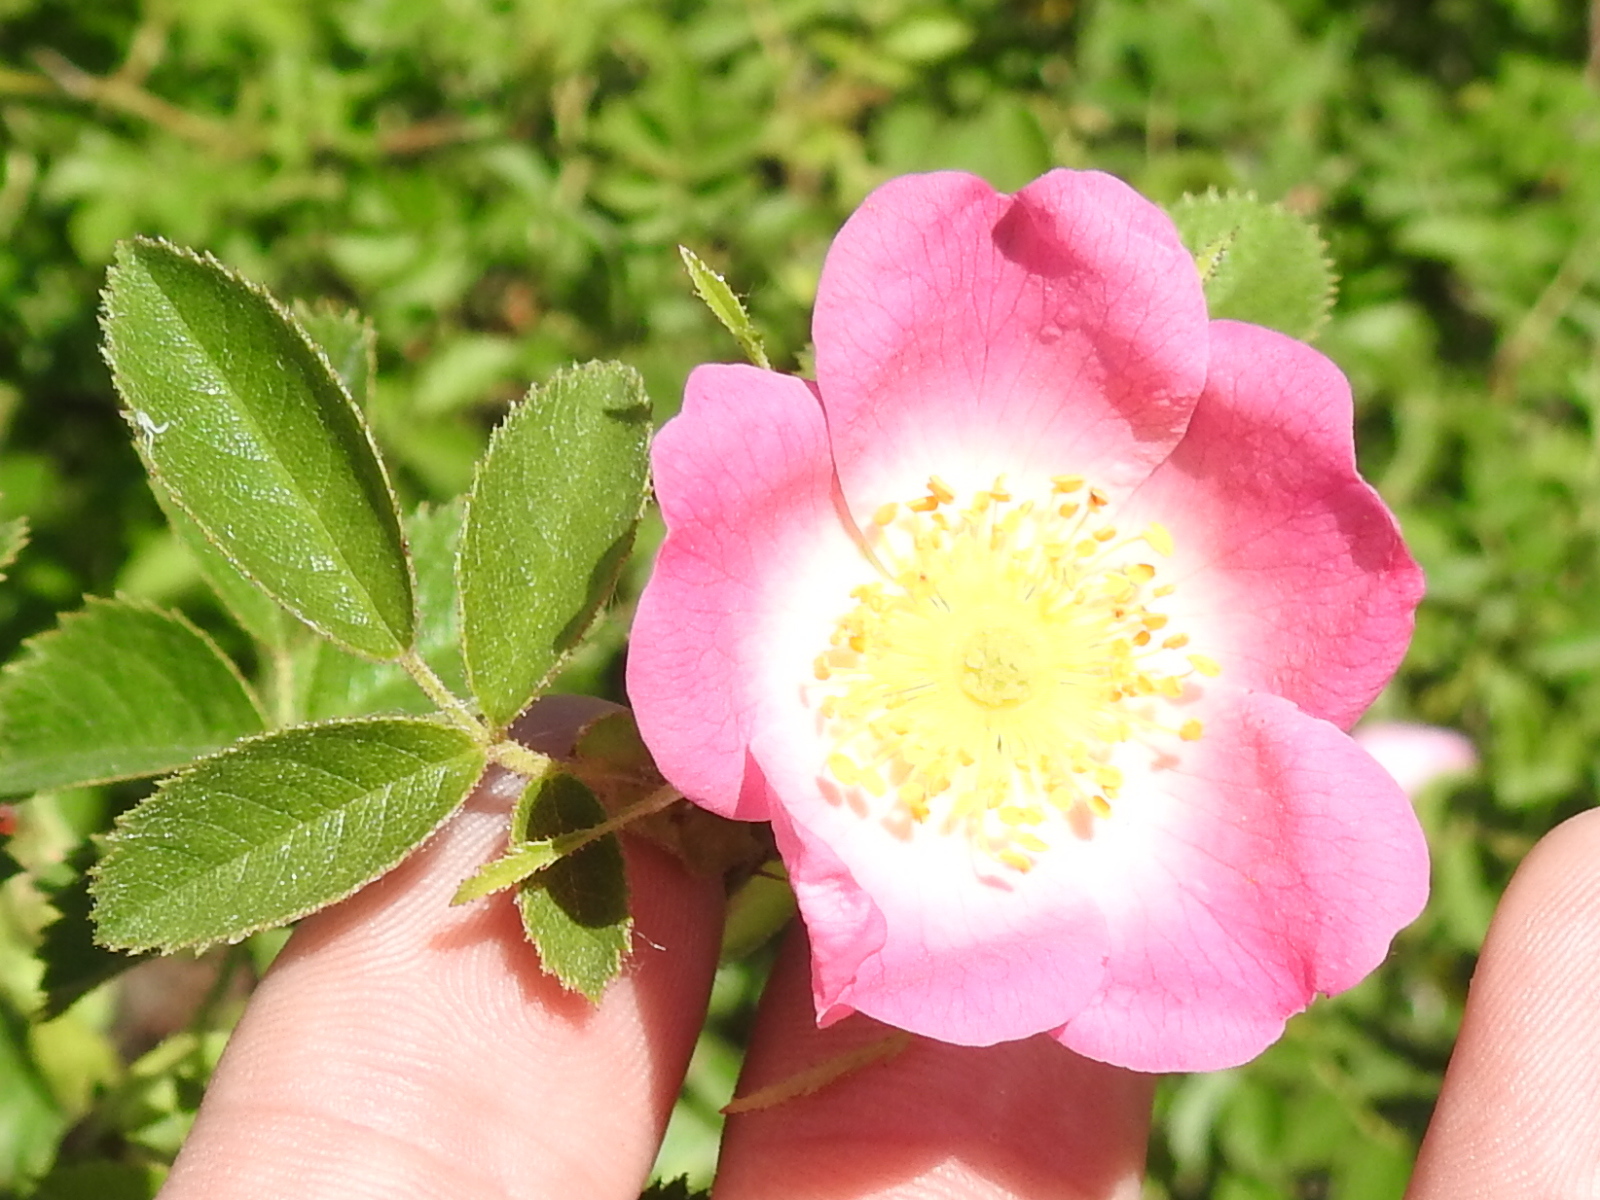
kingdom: Plantae
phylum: Tracheophyta
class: Magnoliopsida
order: Rosales
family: Rosaceae
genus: Rosa
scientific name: Rosa rubiginosa
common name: Sweet-briar
